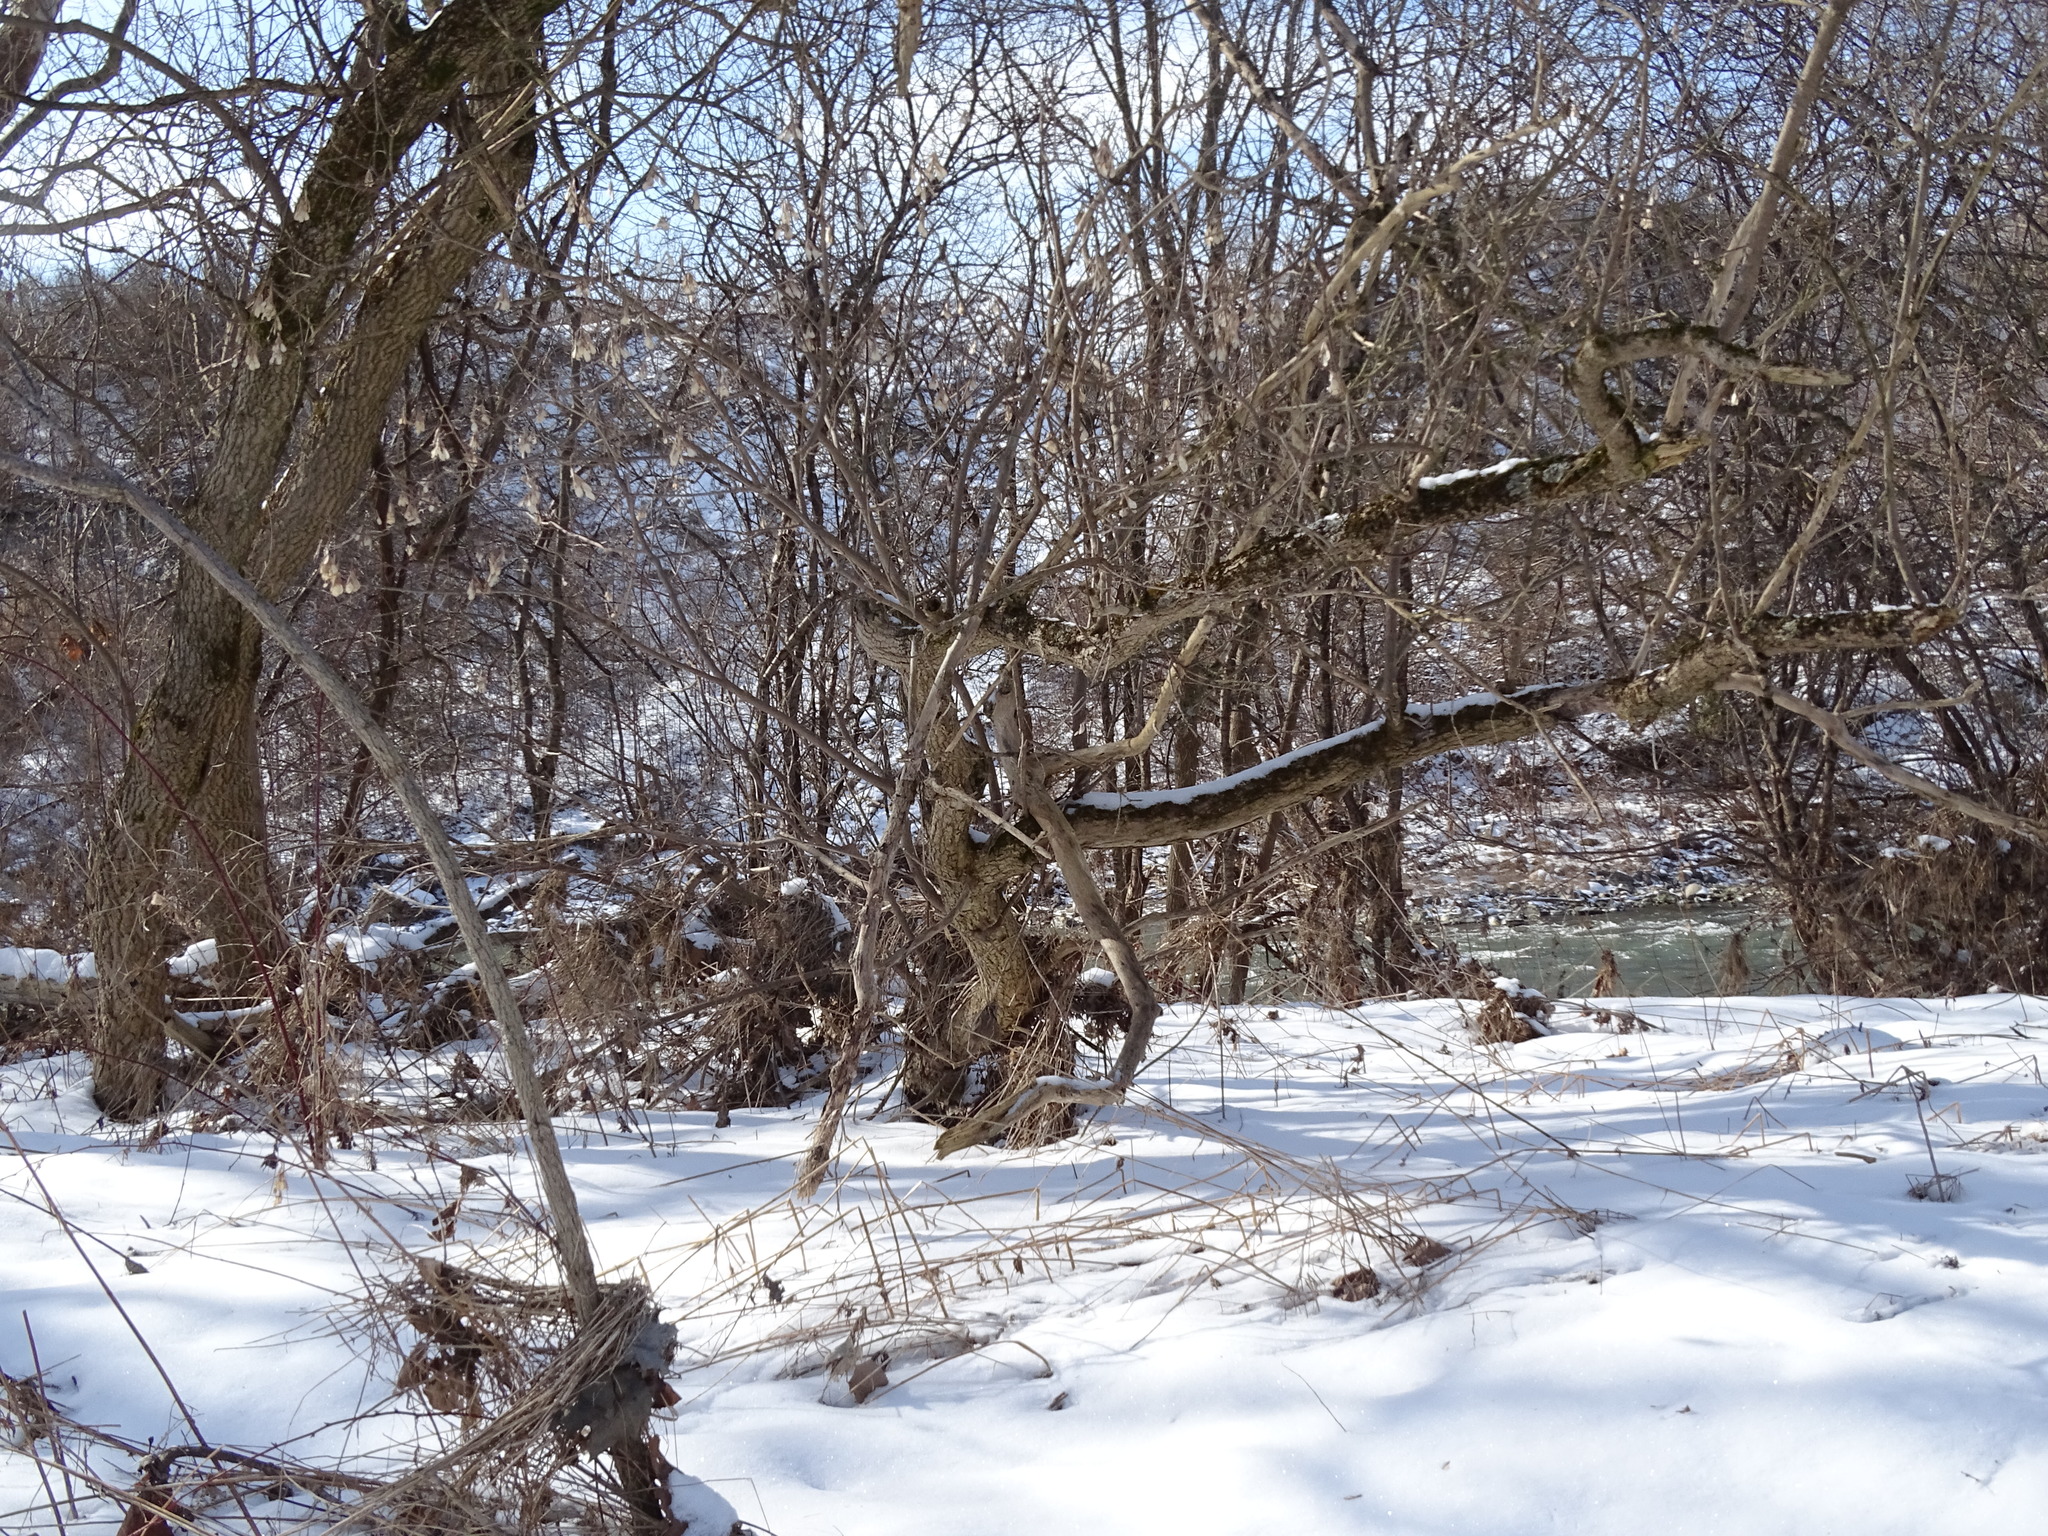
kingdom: Plantae
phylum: Tracheophyta
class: Magnoliopsida
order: Sapindales
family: Sapindaceae
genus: Acer
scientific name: Acer negundo
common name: Ashleaf maple
